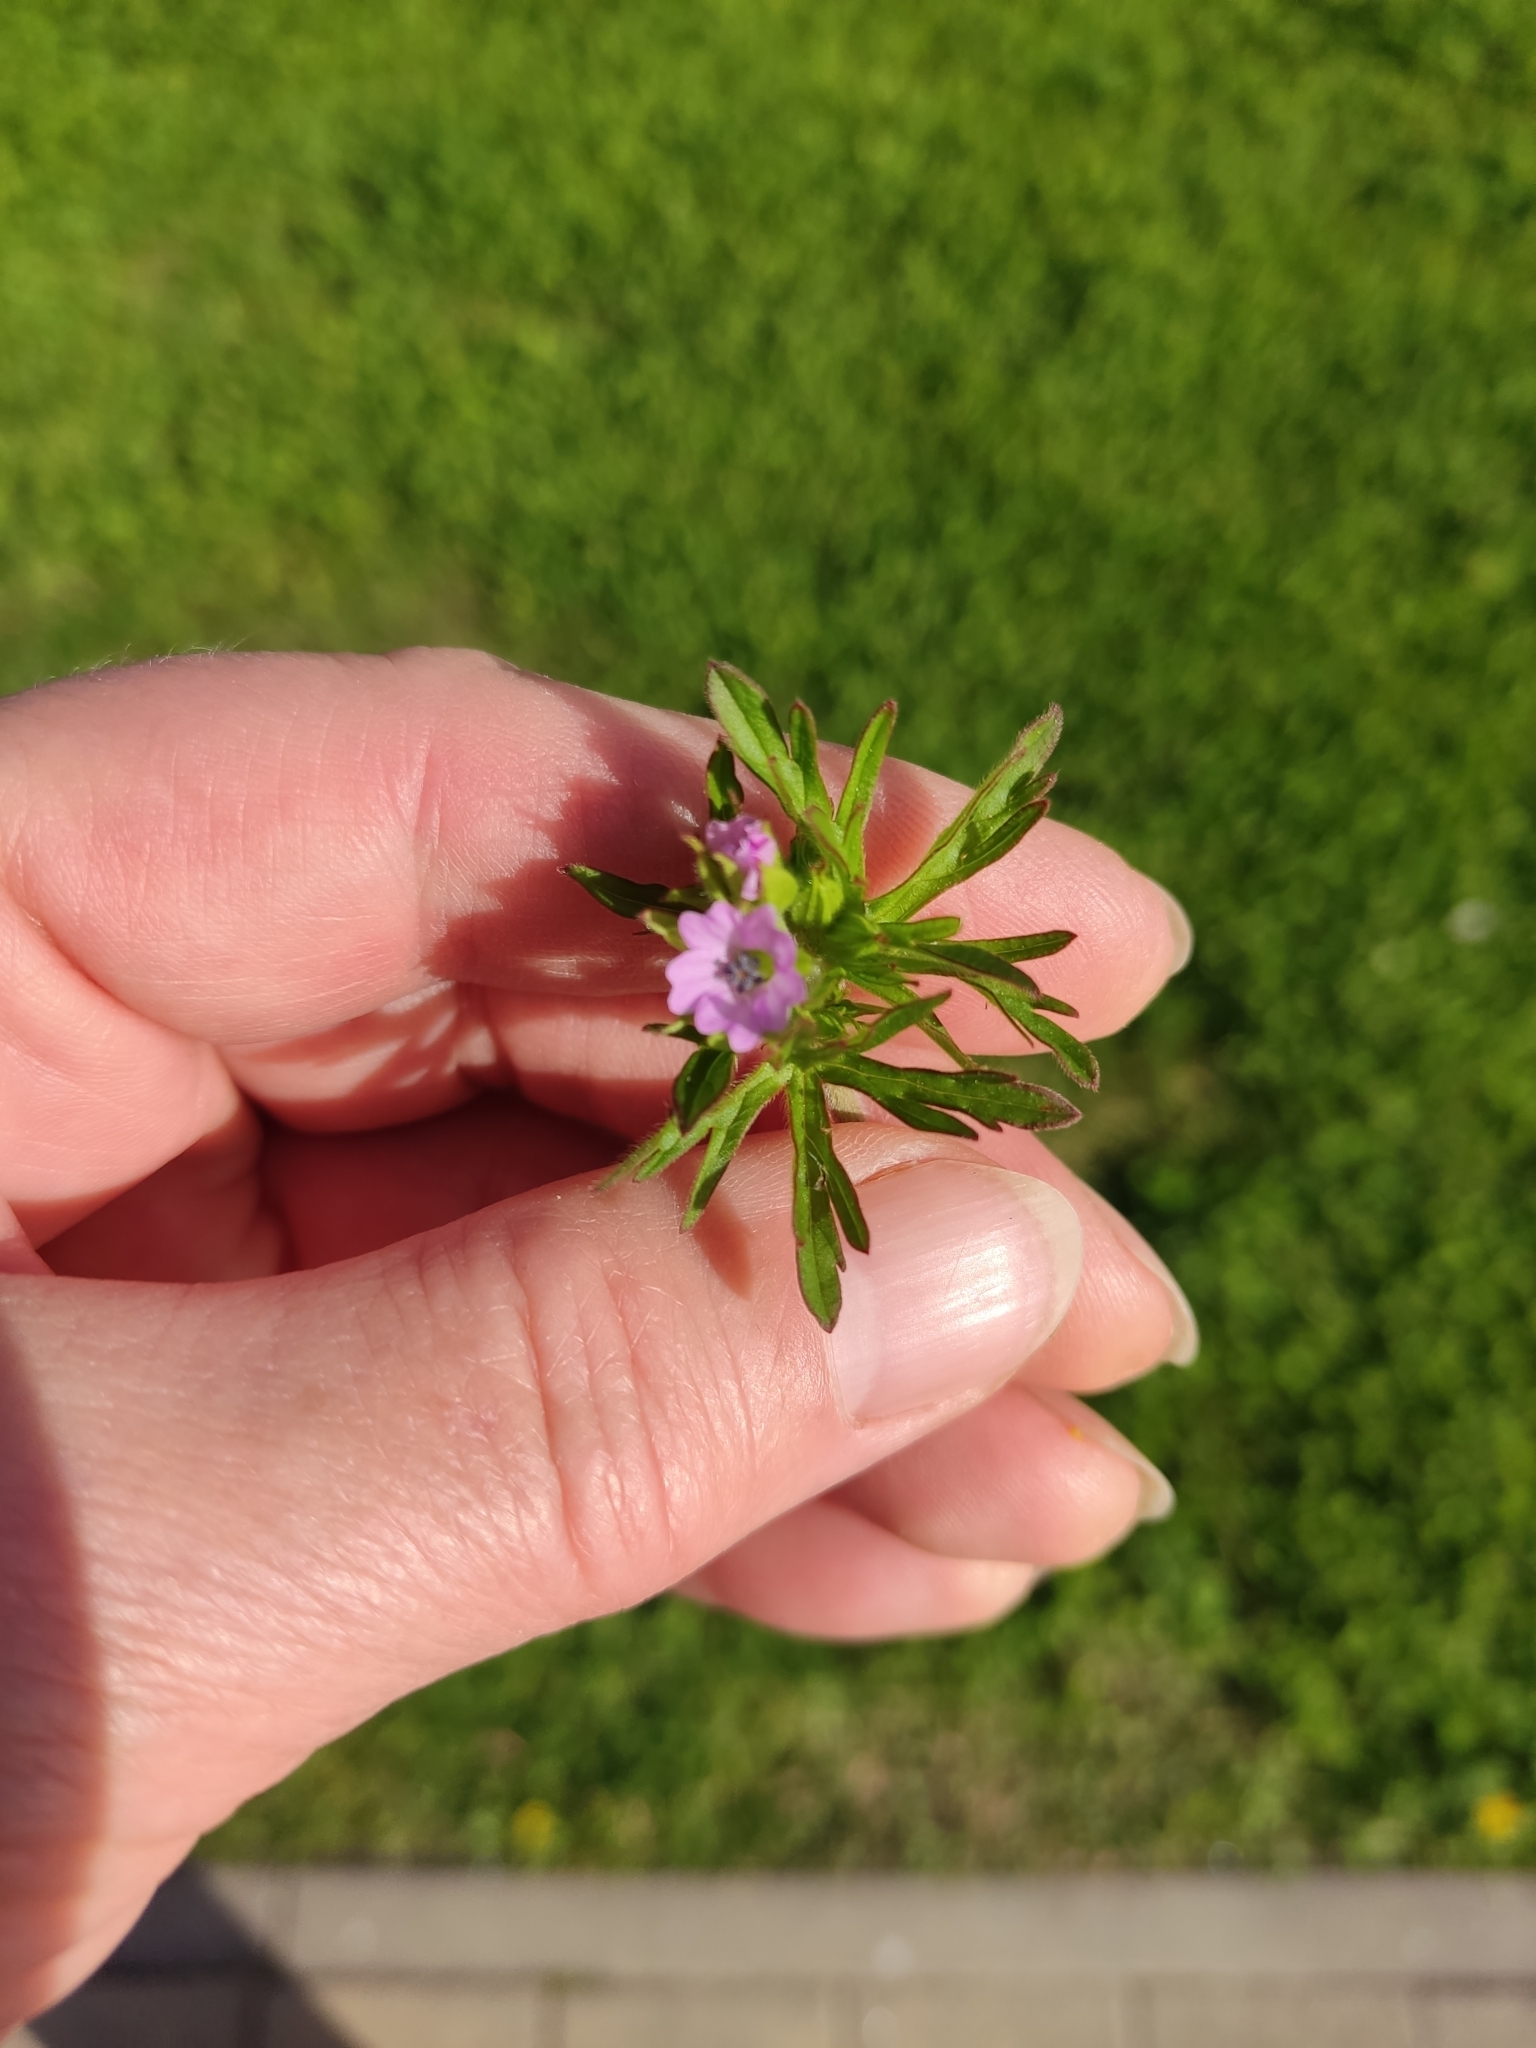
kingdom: Plantae
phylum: Tracheophyta
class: Magnoliopsida
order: Geraniales
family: Geraniaceae
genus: Geranium
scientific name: Geranium dissectum
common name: Cut-leaved crane's-bill
